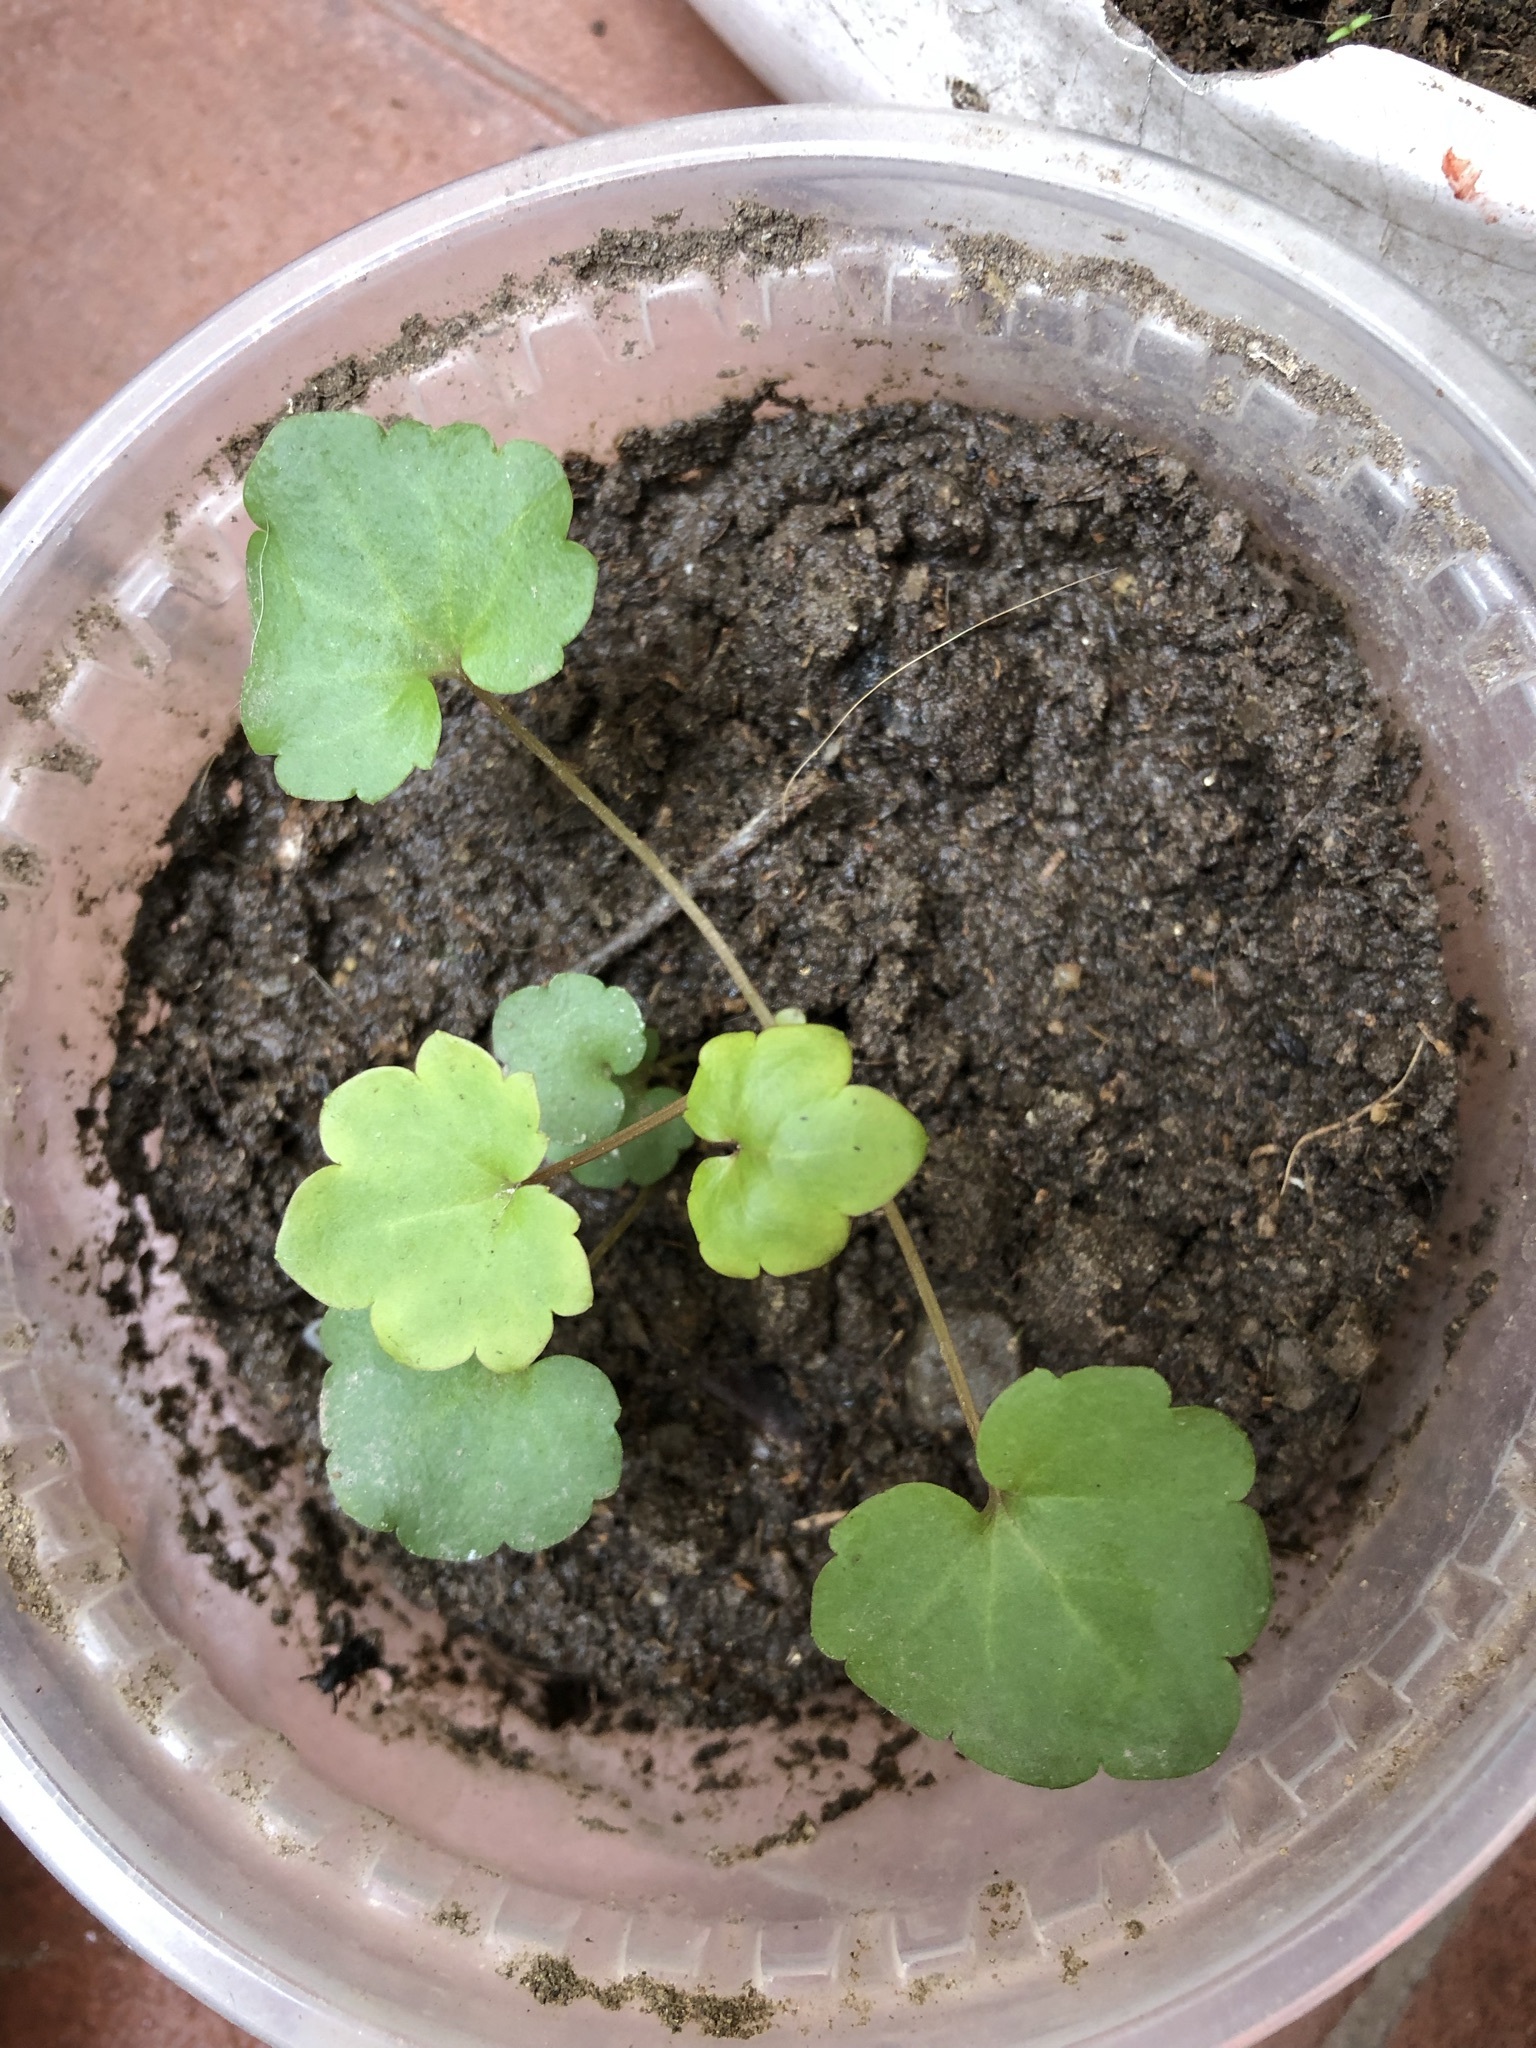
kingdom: Plantae
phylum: Tracheophyta
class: Magnoliopsida
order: Lamiales
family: Plantaginaceae
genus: Cymbalaria
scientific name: Cymbalaria muralis
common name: Ivy-leaved toadflax
